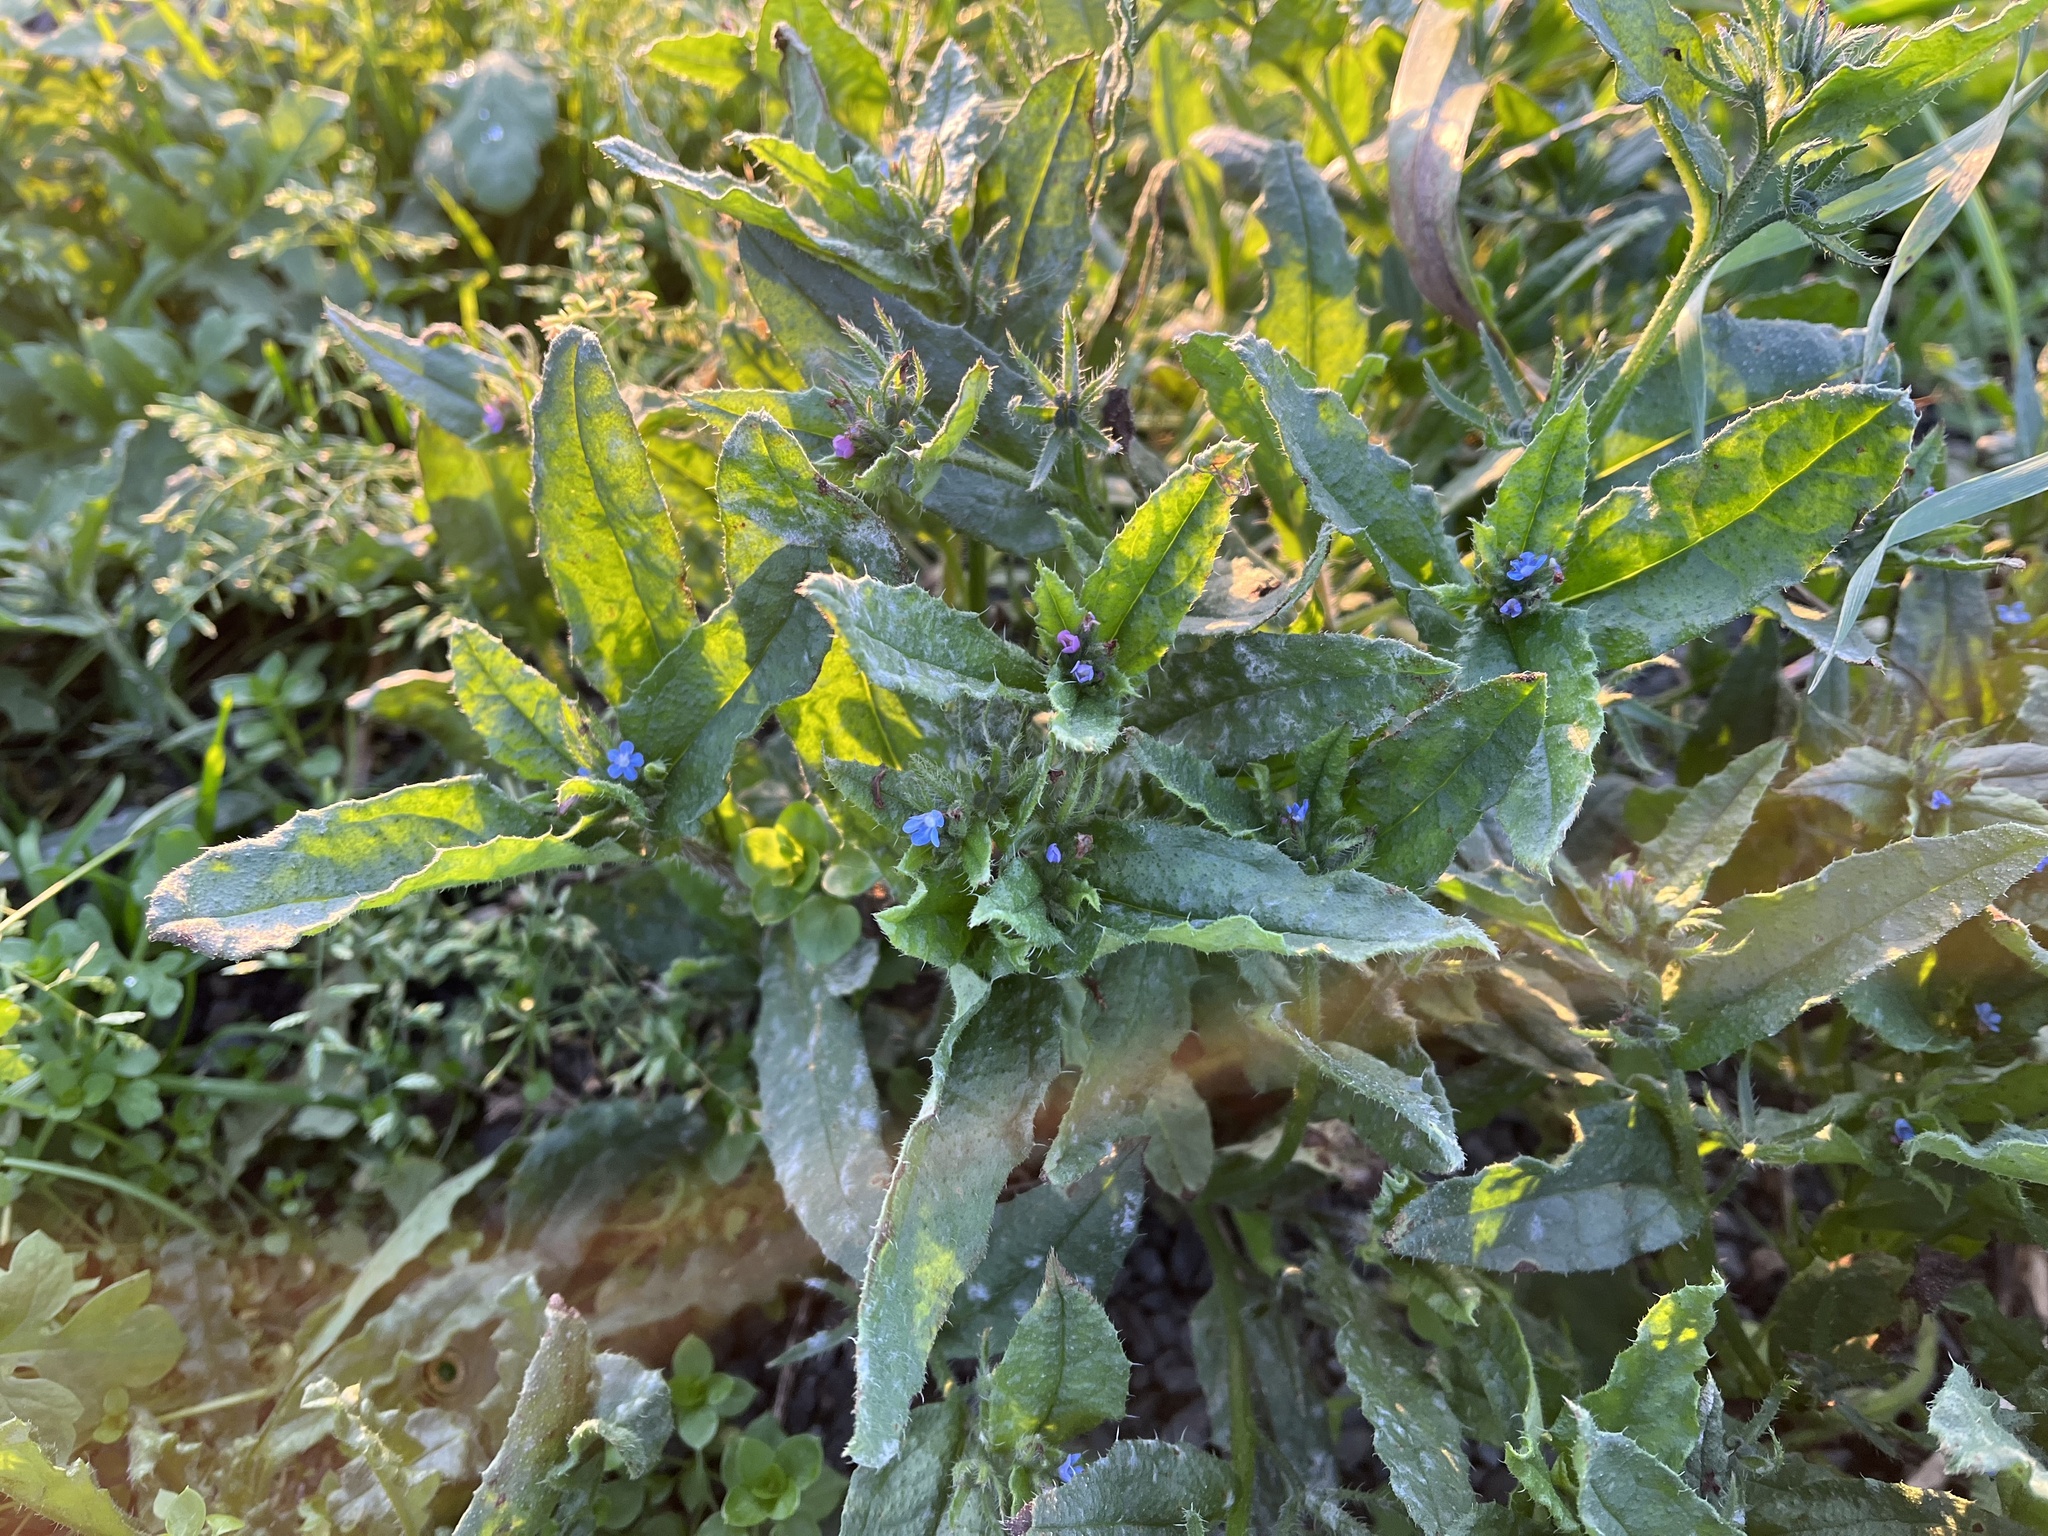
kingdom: Plantae
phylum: Tracheophyta
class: Magnoliopsida
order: Boraginales
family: Boraginaceae
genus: Lycopsis
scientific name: Lycopsis arvensis
